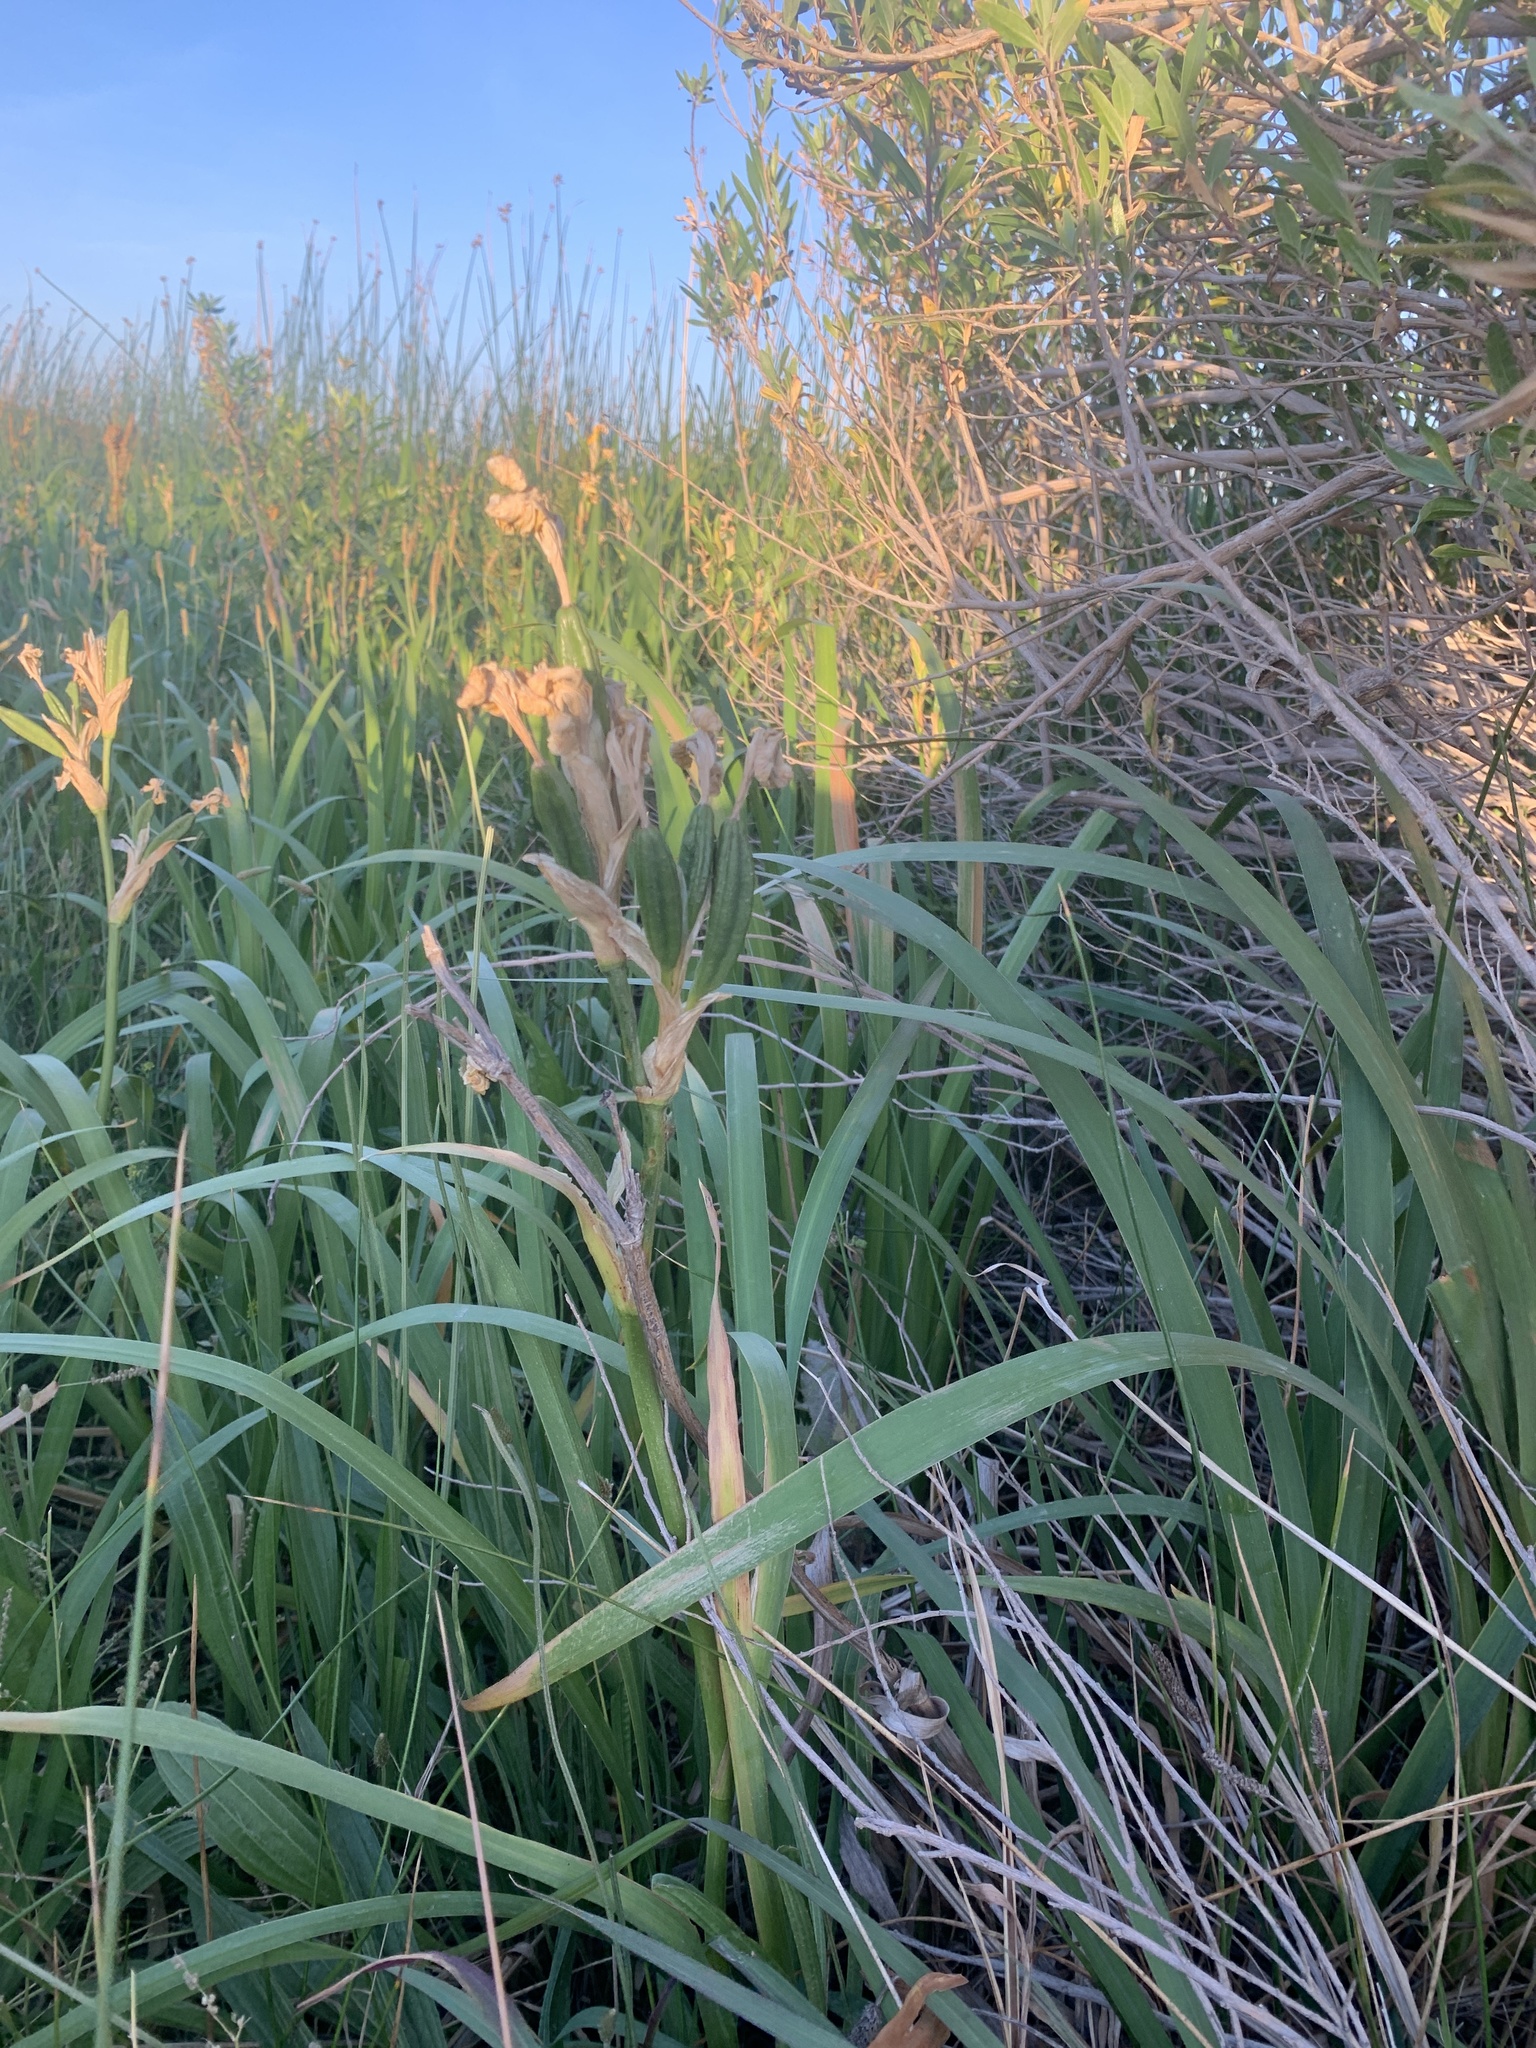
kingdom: Plantae
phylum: Tracheophyta
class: Liliopsida
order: Asparagales
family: Iridaceae
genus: Iris
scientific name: Iris pseudacorus
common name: Yellow flag
